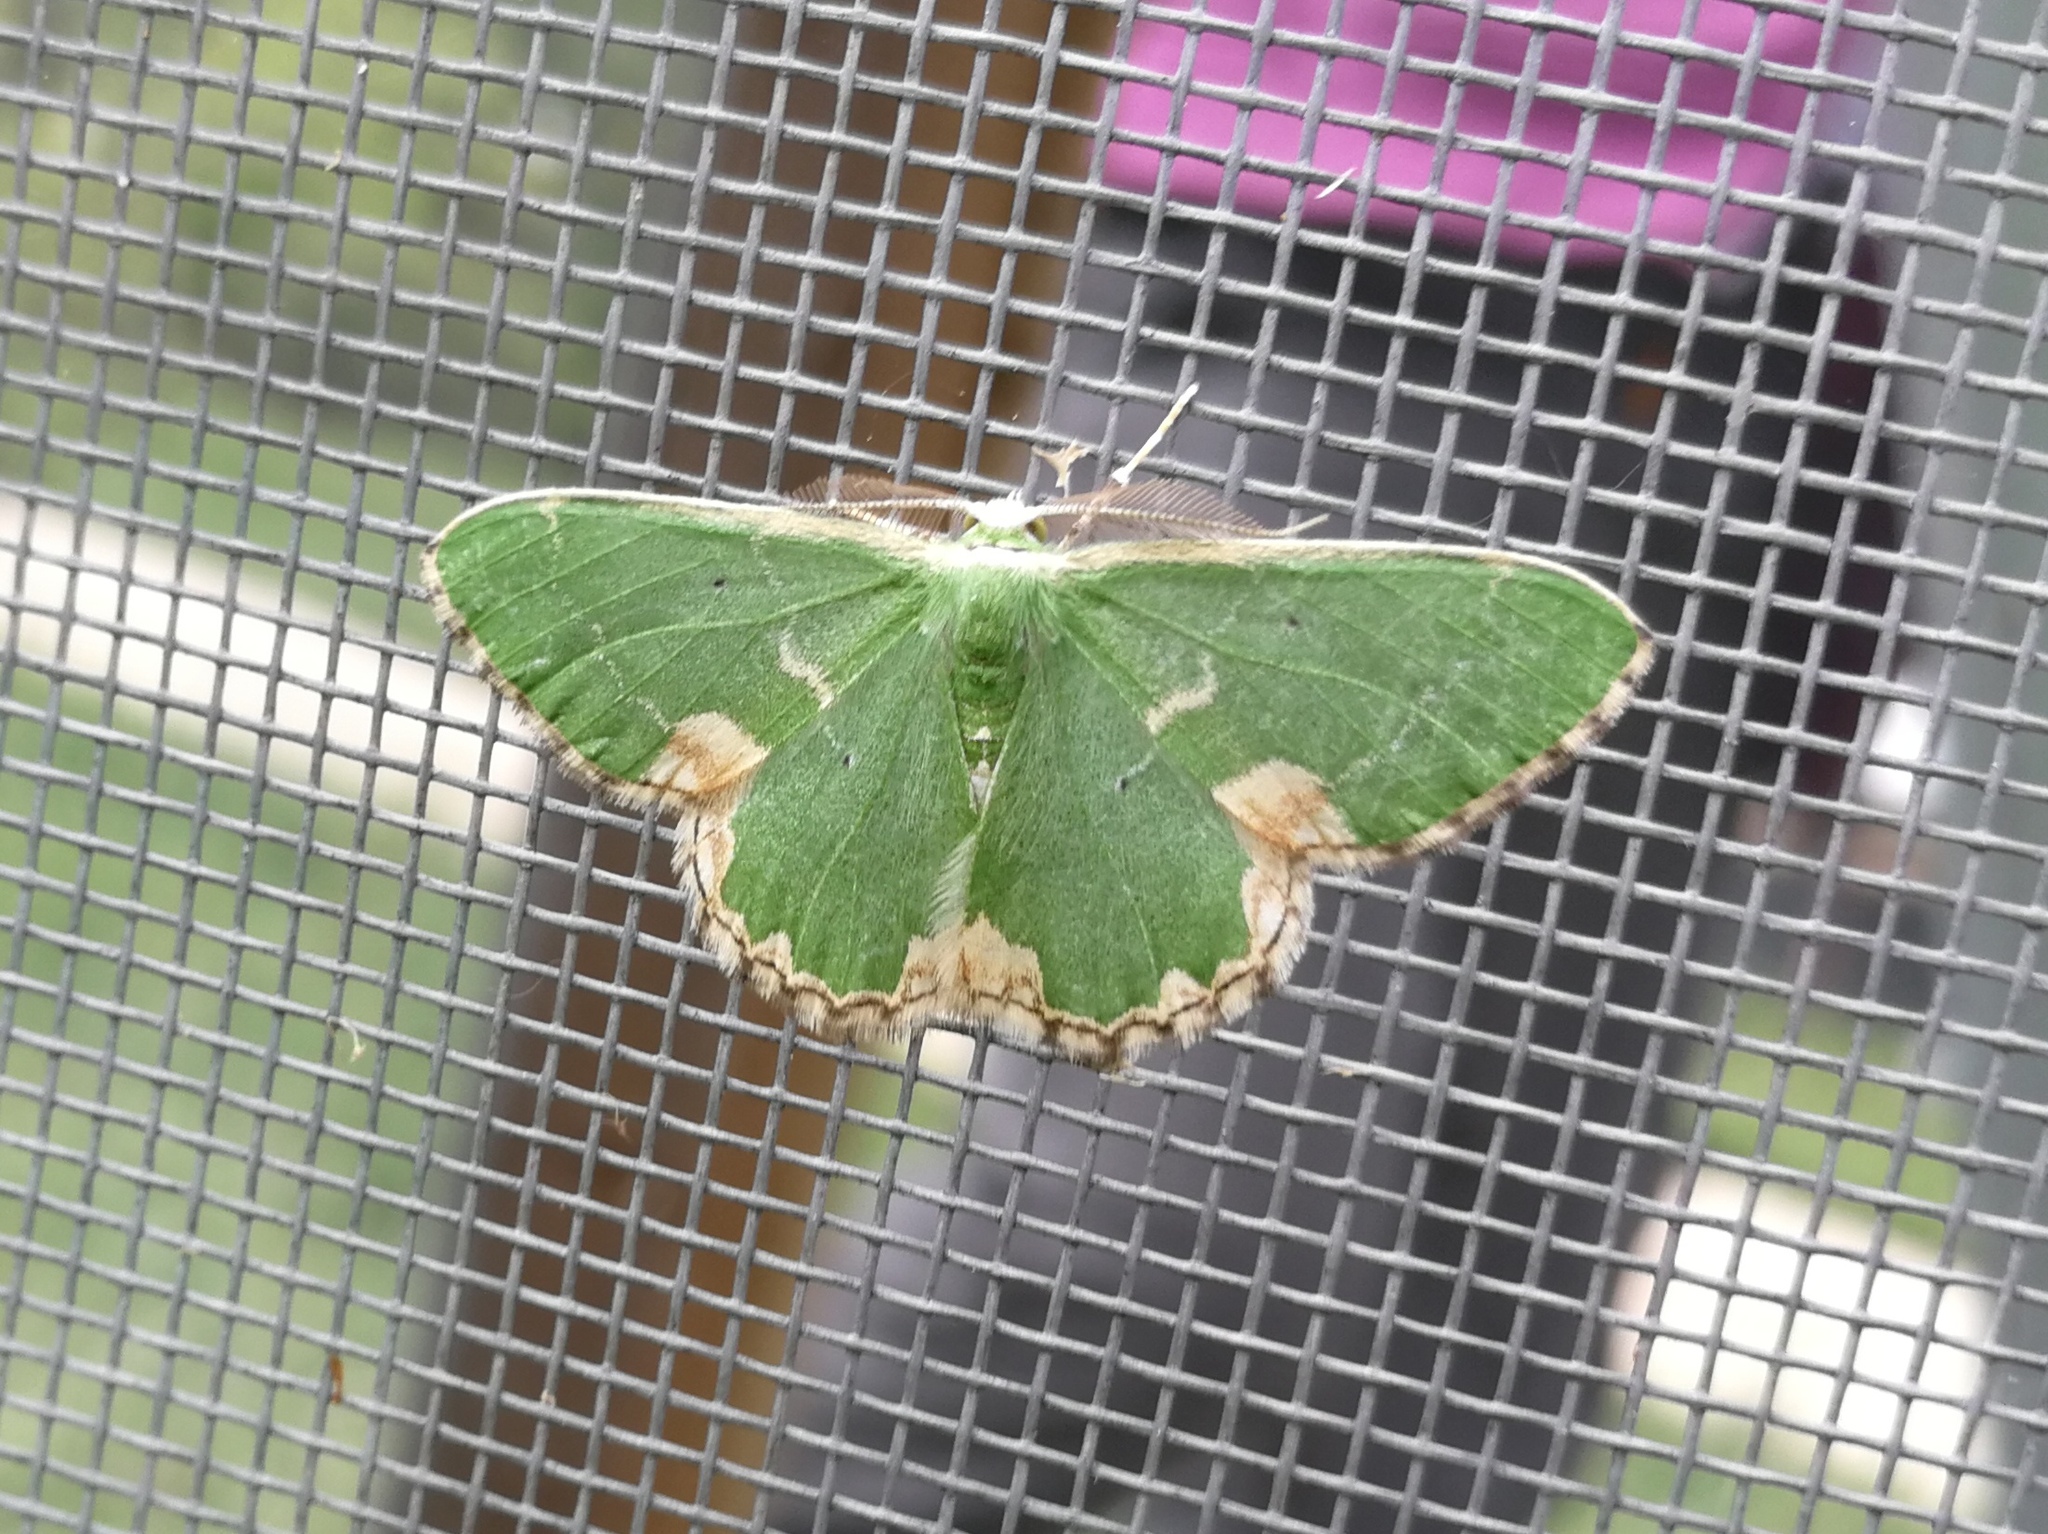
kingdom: Animalia
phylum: Arthropoda
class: Insecta
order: Lepidoptera
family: Geometridae
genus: Comibaena
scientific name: Comibaena bajularia
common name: Blotched emerald
